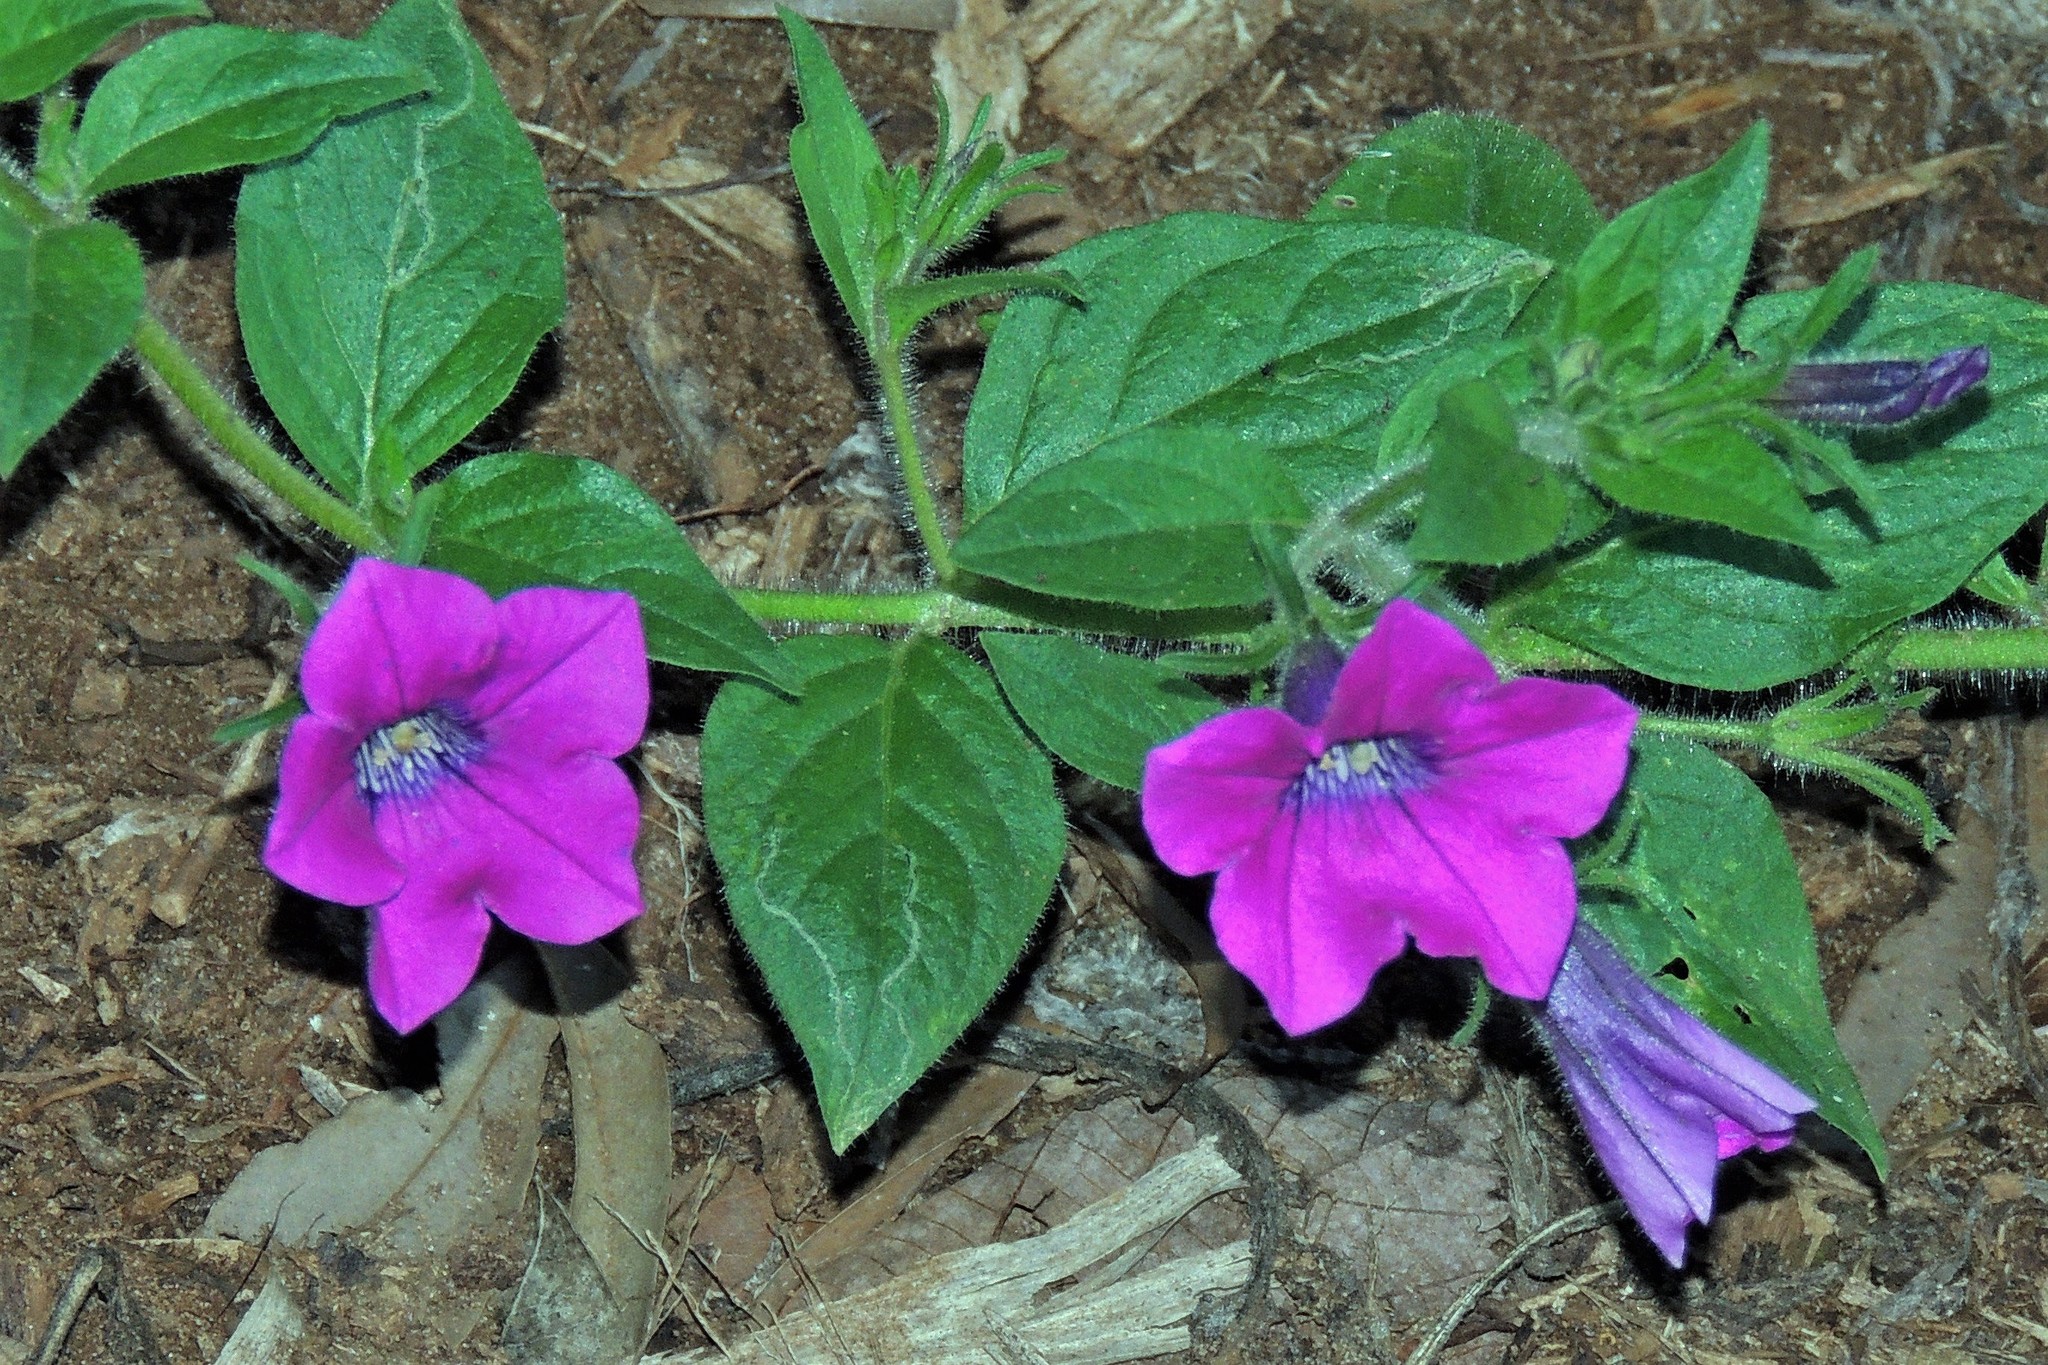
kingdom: Plantae
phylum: Tracheophyta
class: Magnoliopsida
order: Solanales
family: Solanaceae
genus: Petunia
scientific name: Petunia scheideana
